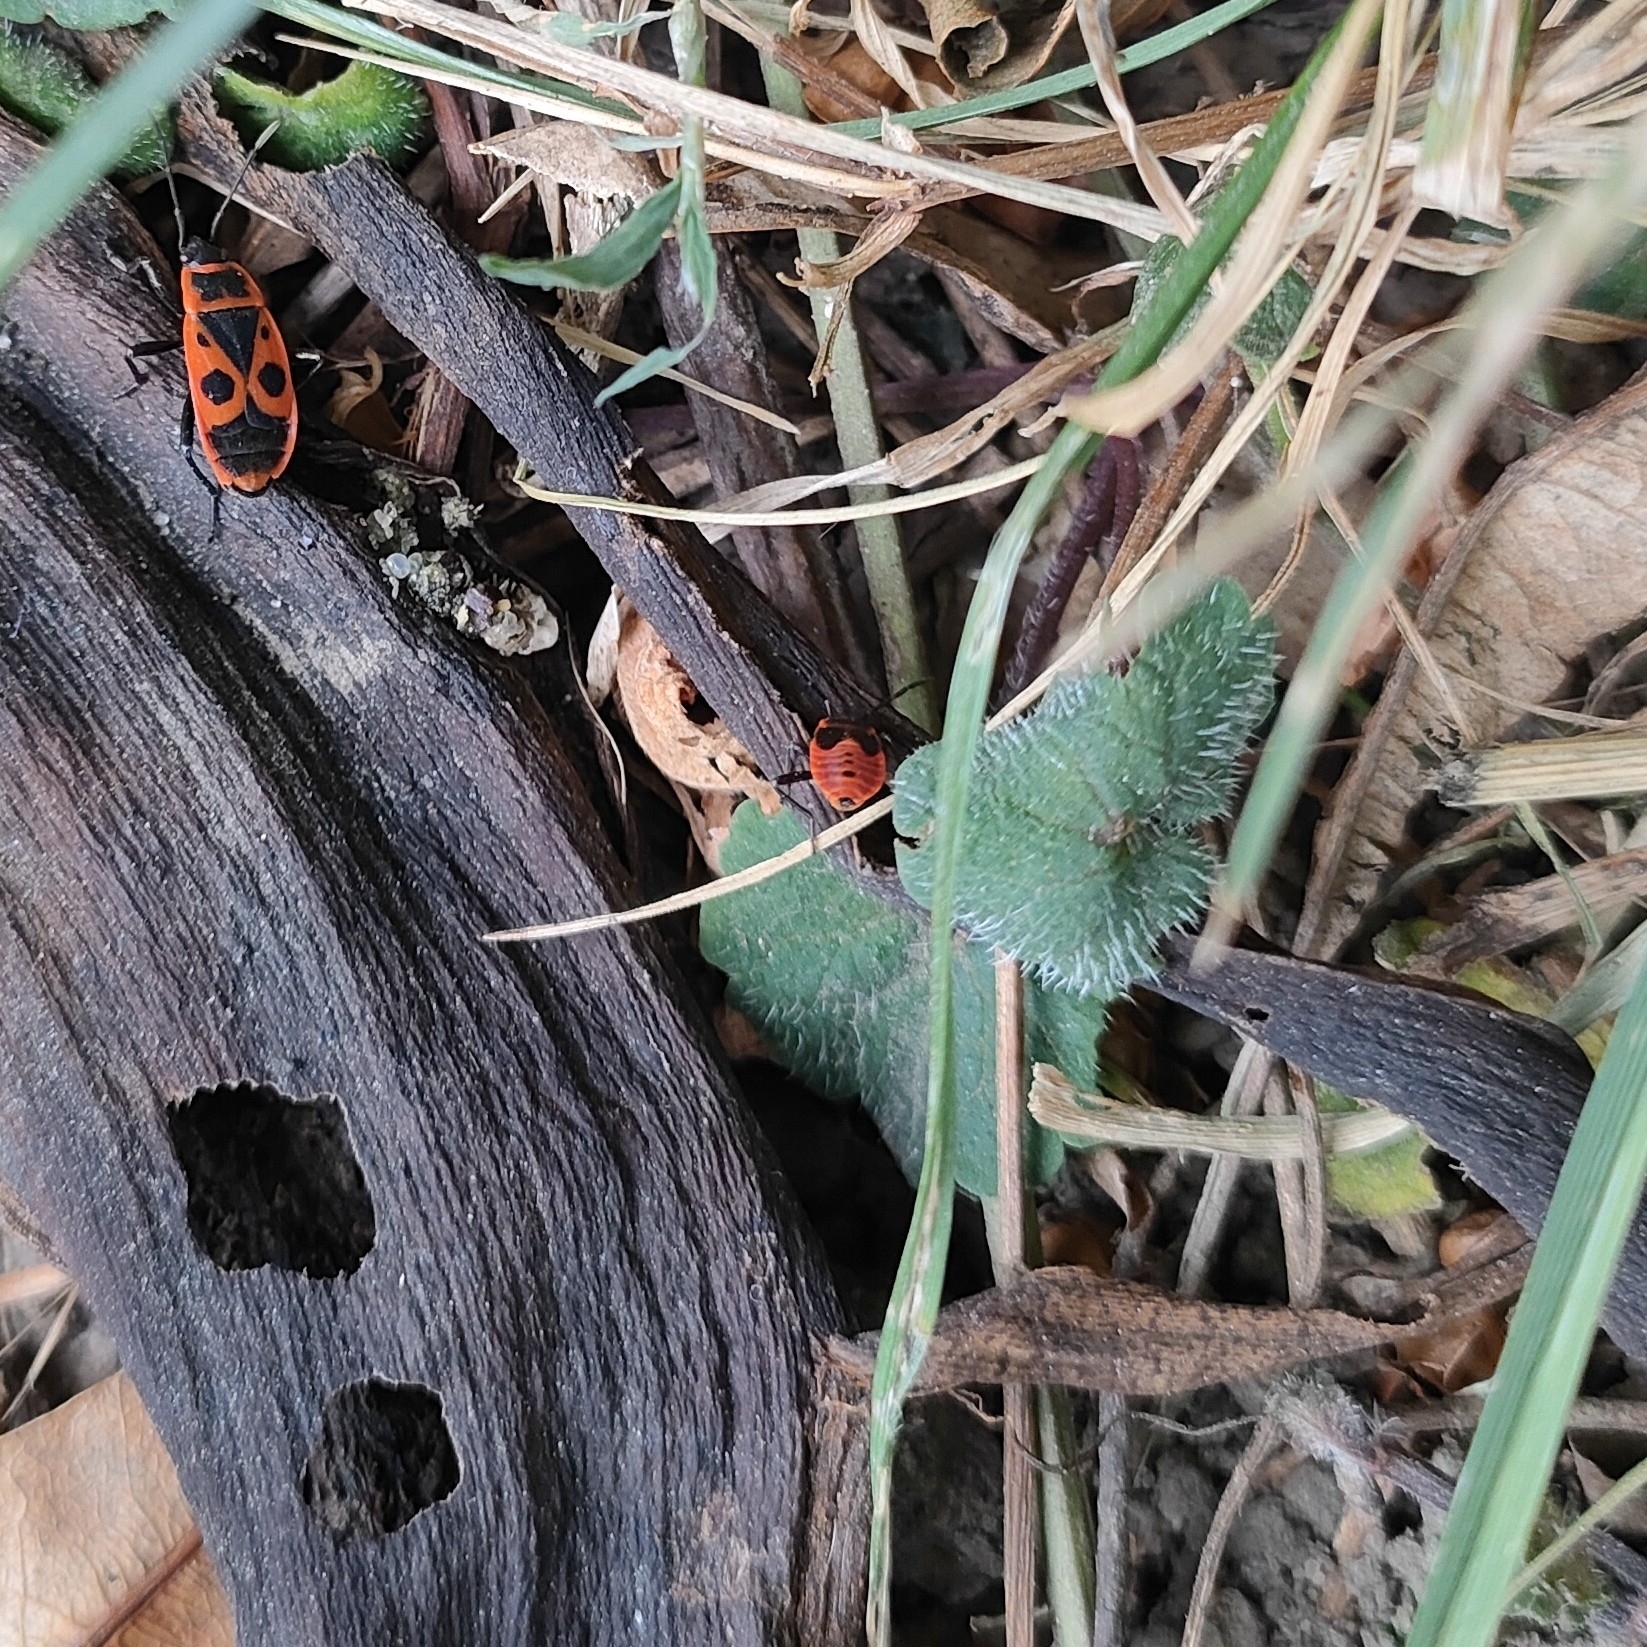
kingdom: Animalia
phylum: Arthropoda
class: Insecta
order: Hemiptera
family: Pyrrhocoridae
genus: Pyrrhocoris
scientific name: Pyrrhocoris apterus
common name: Firebug
